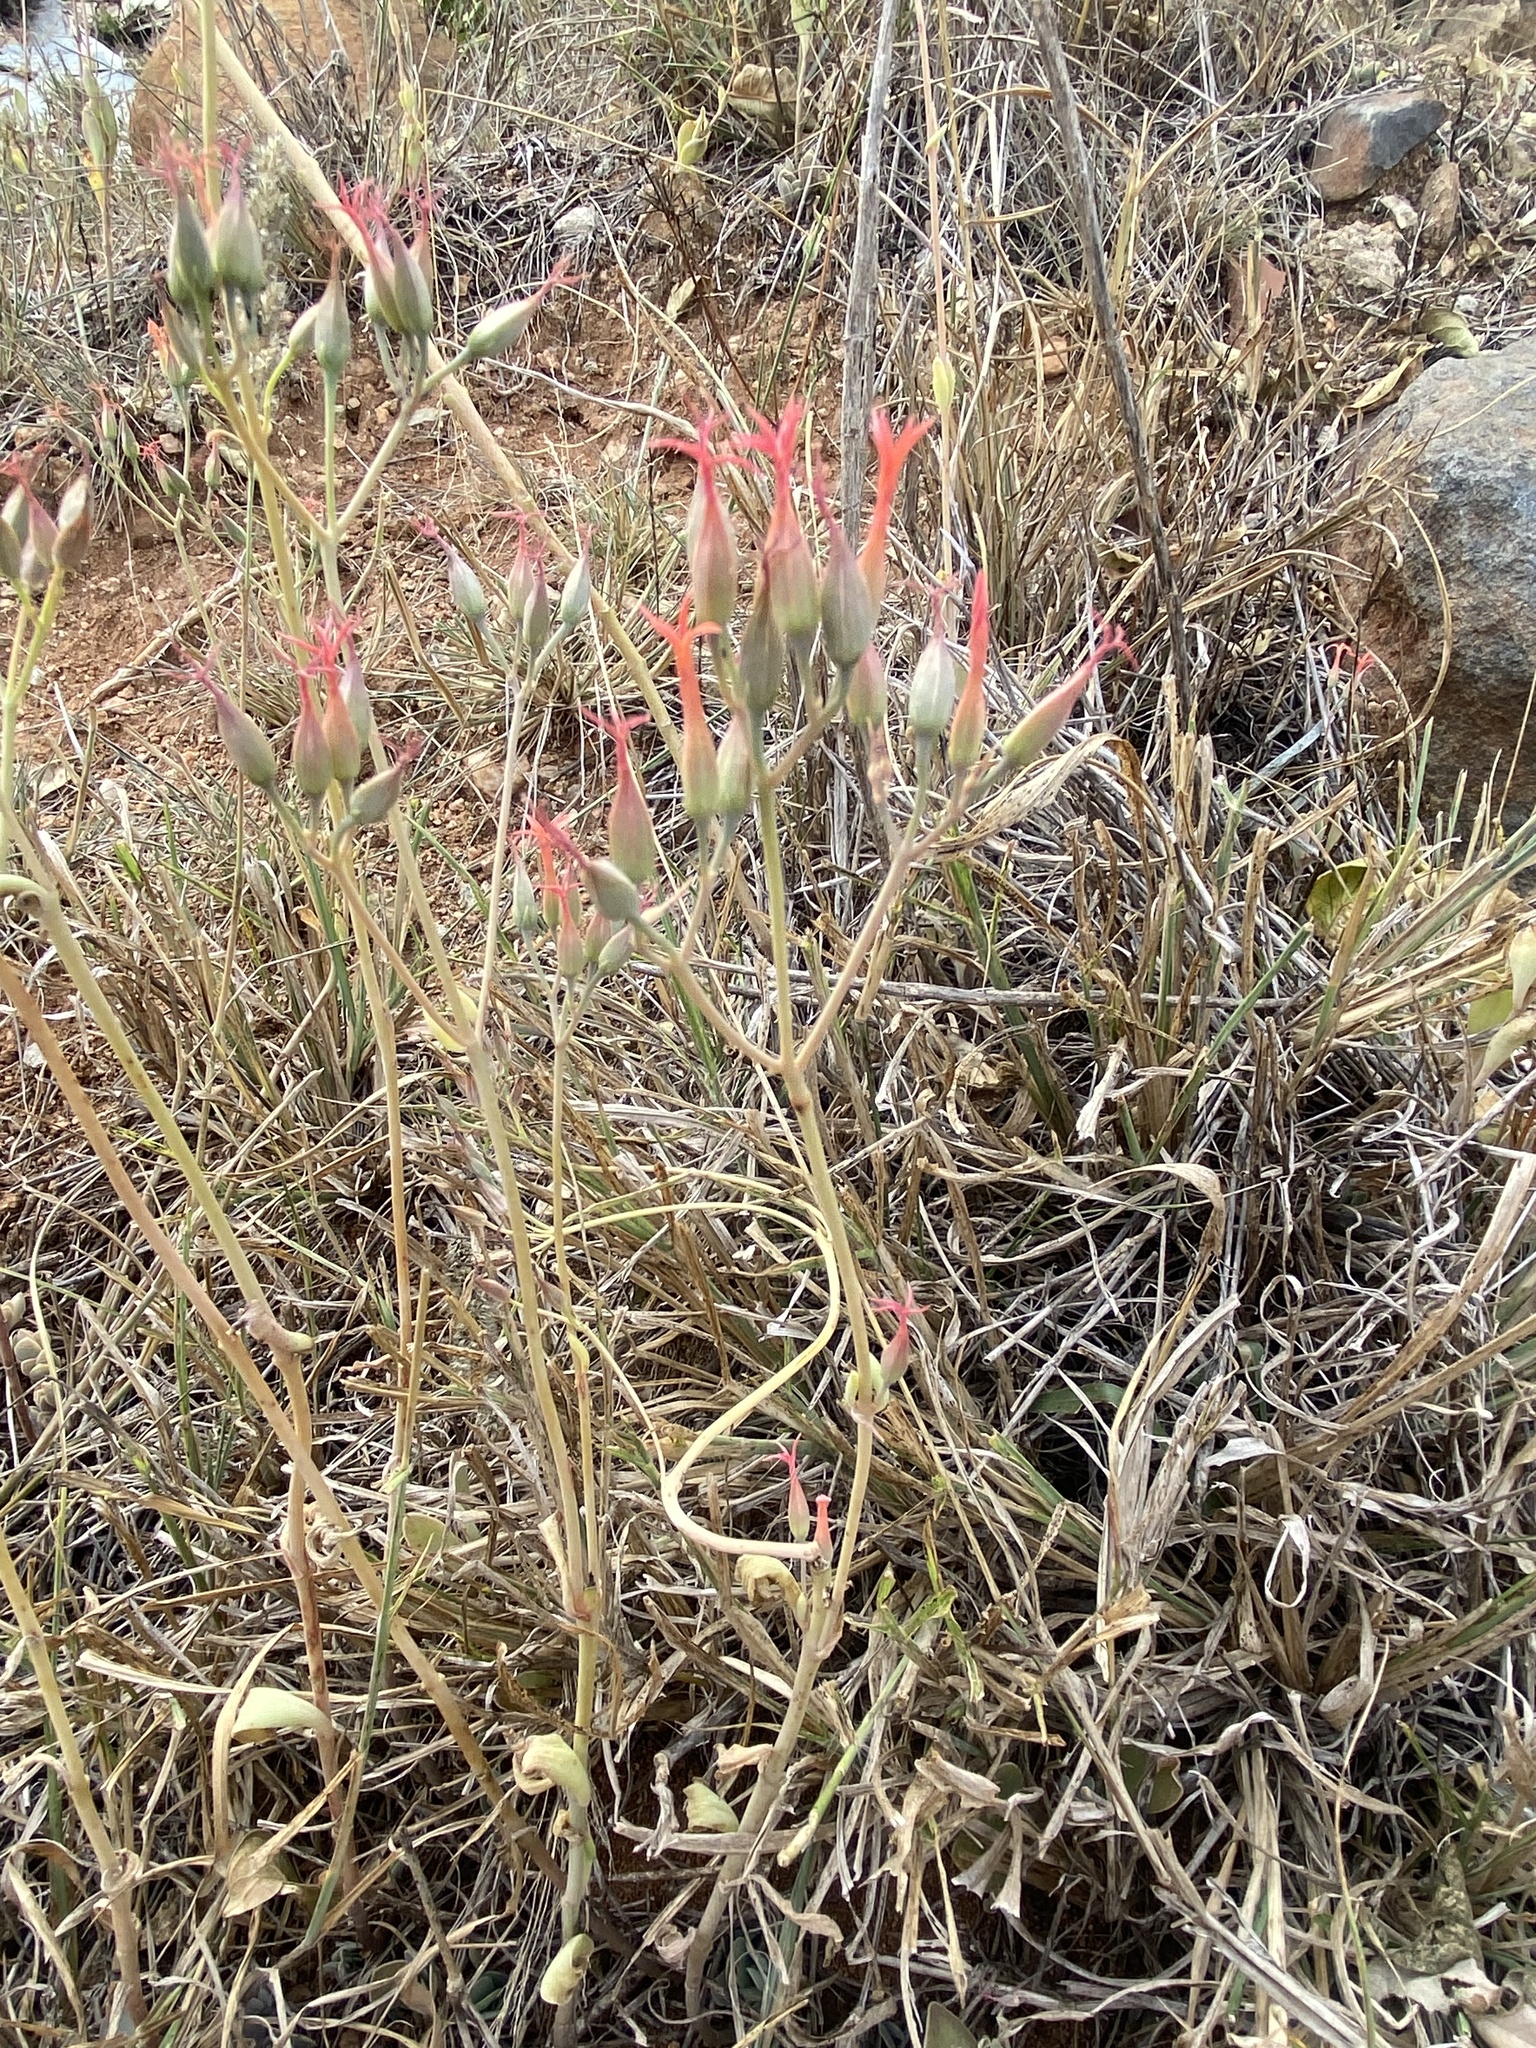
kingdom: Plantae
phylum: Tracheophyta
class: Magnoliopsida
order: Saxifragales
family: Crassulaceae
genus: Kalanchoe
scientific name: Kalanchoe rotundifolia
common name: Common kalanchoe
